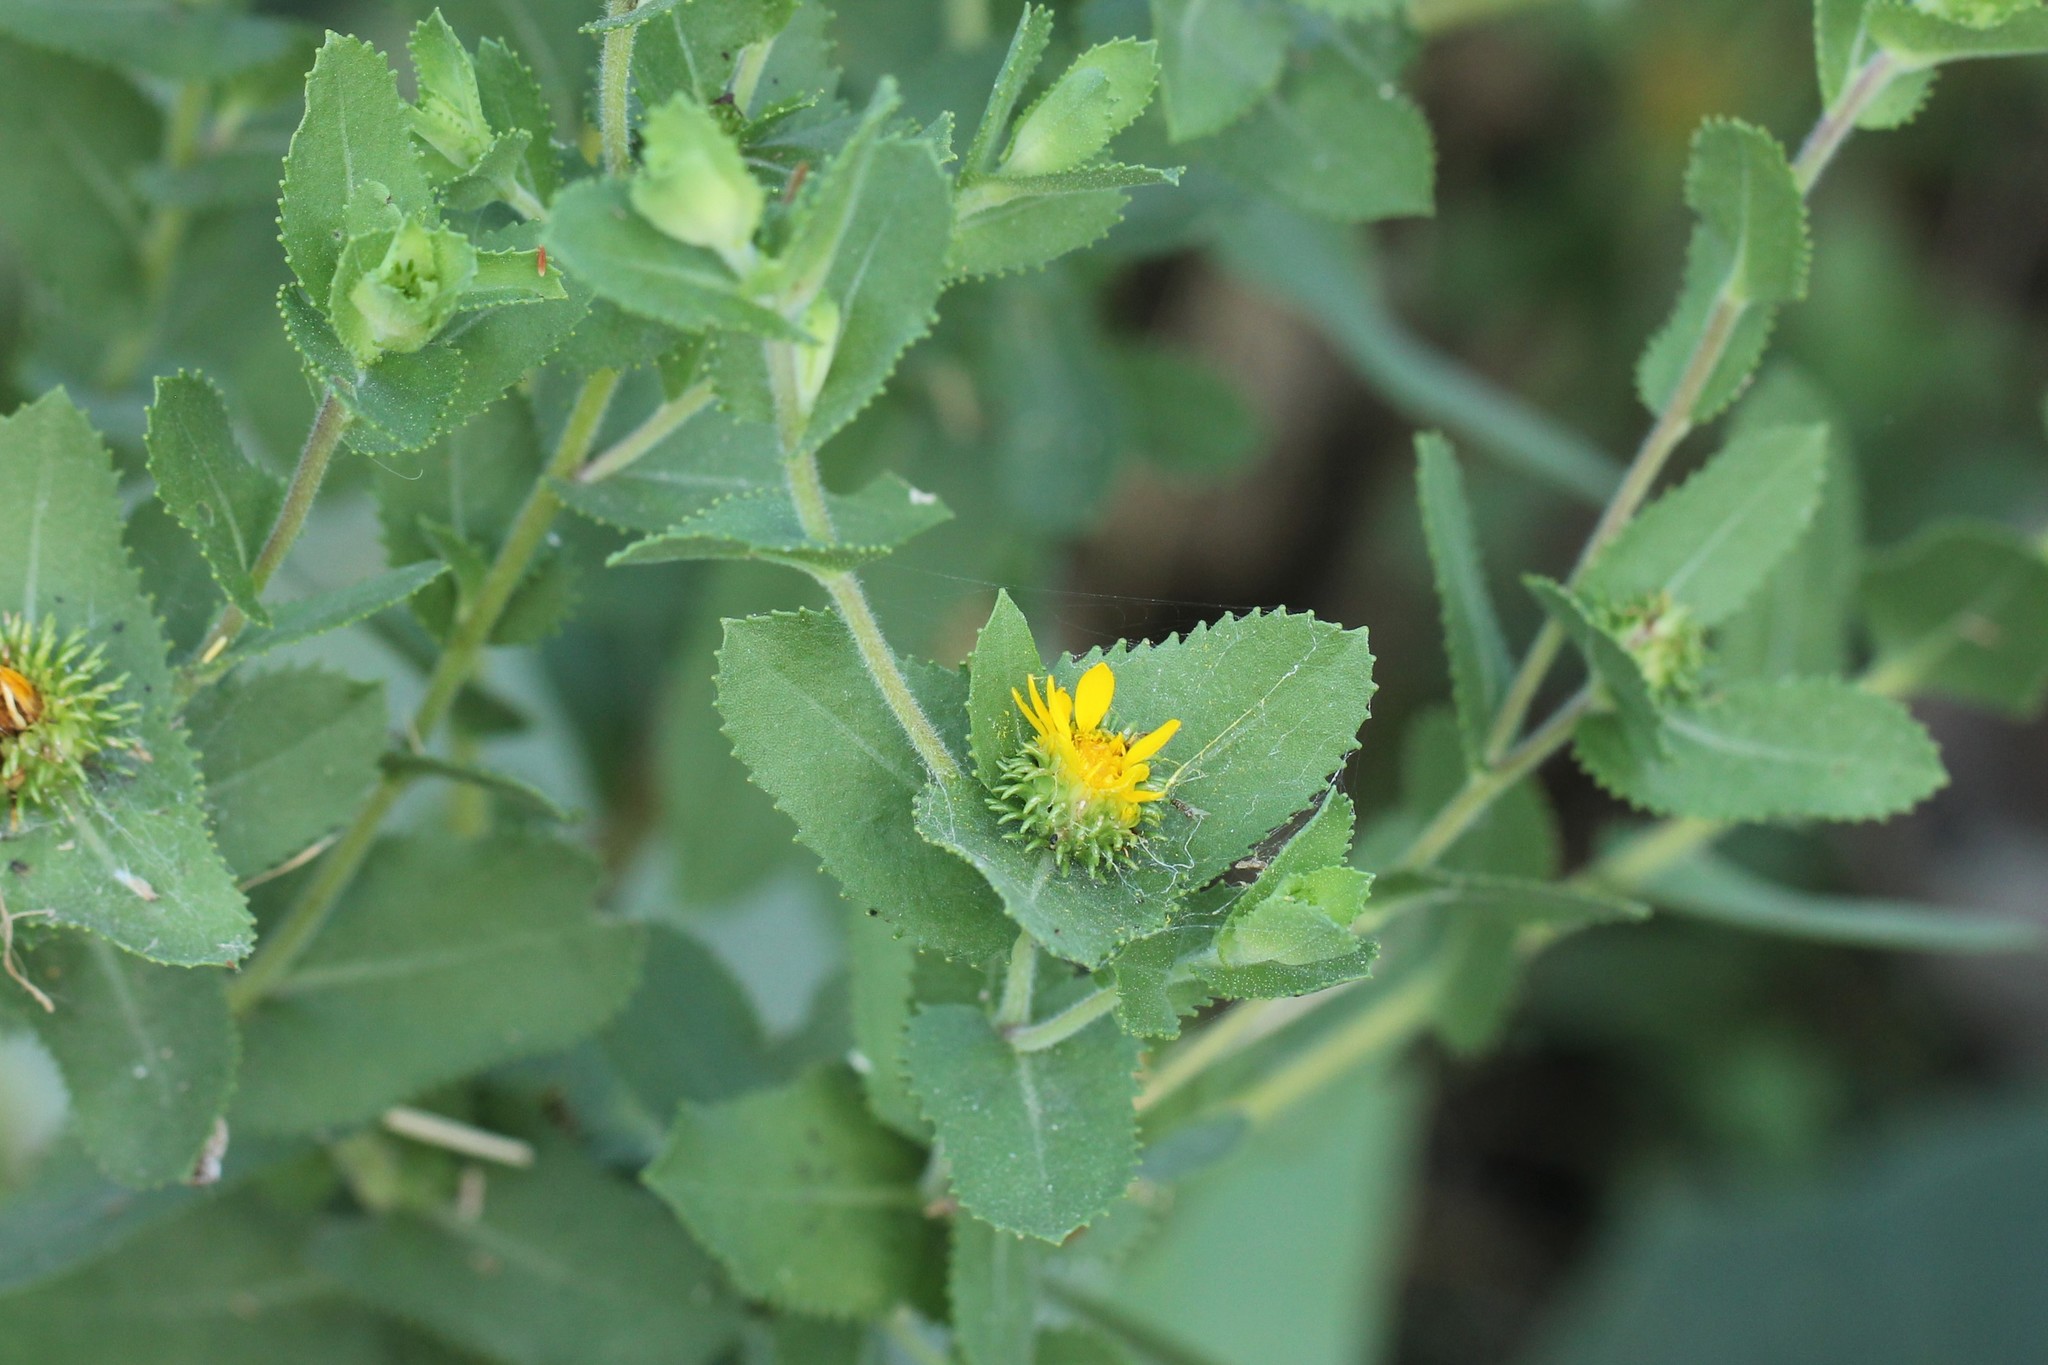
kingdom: Plantae
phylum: Tracheophyta
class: Magnoliopsida
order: Asterales
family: Asteraceae
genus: Grindelia
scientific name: Grindelia adenodonta
